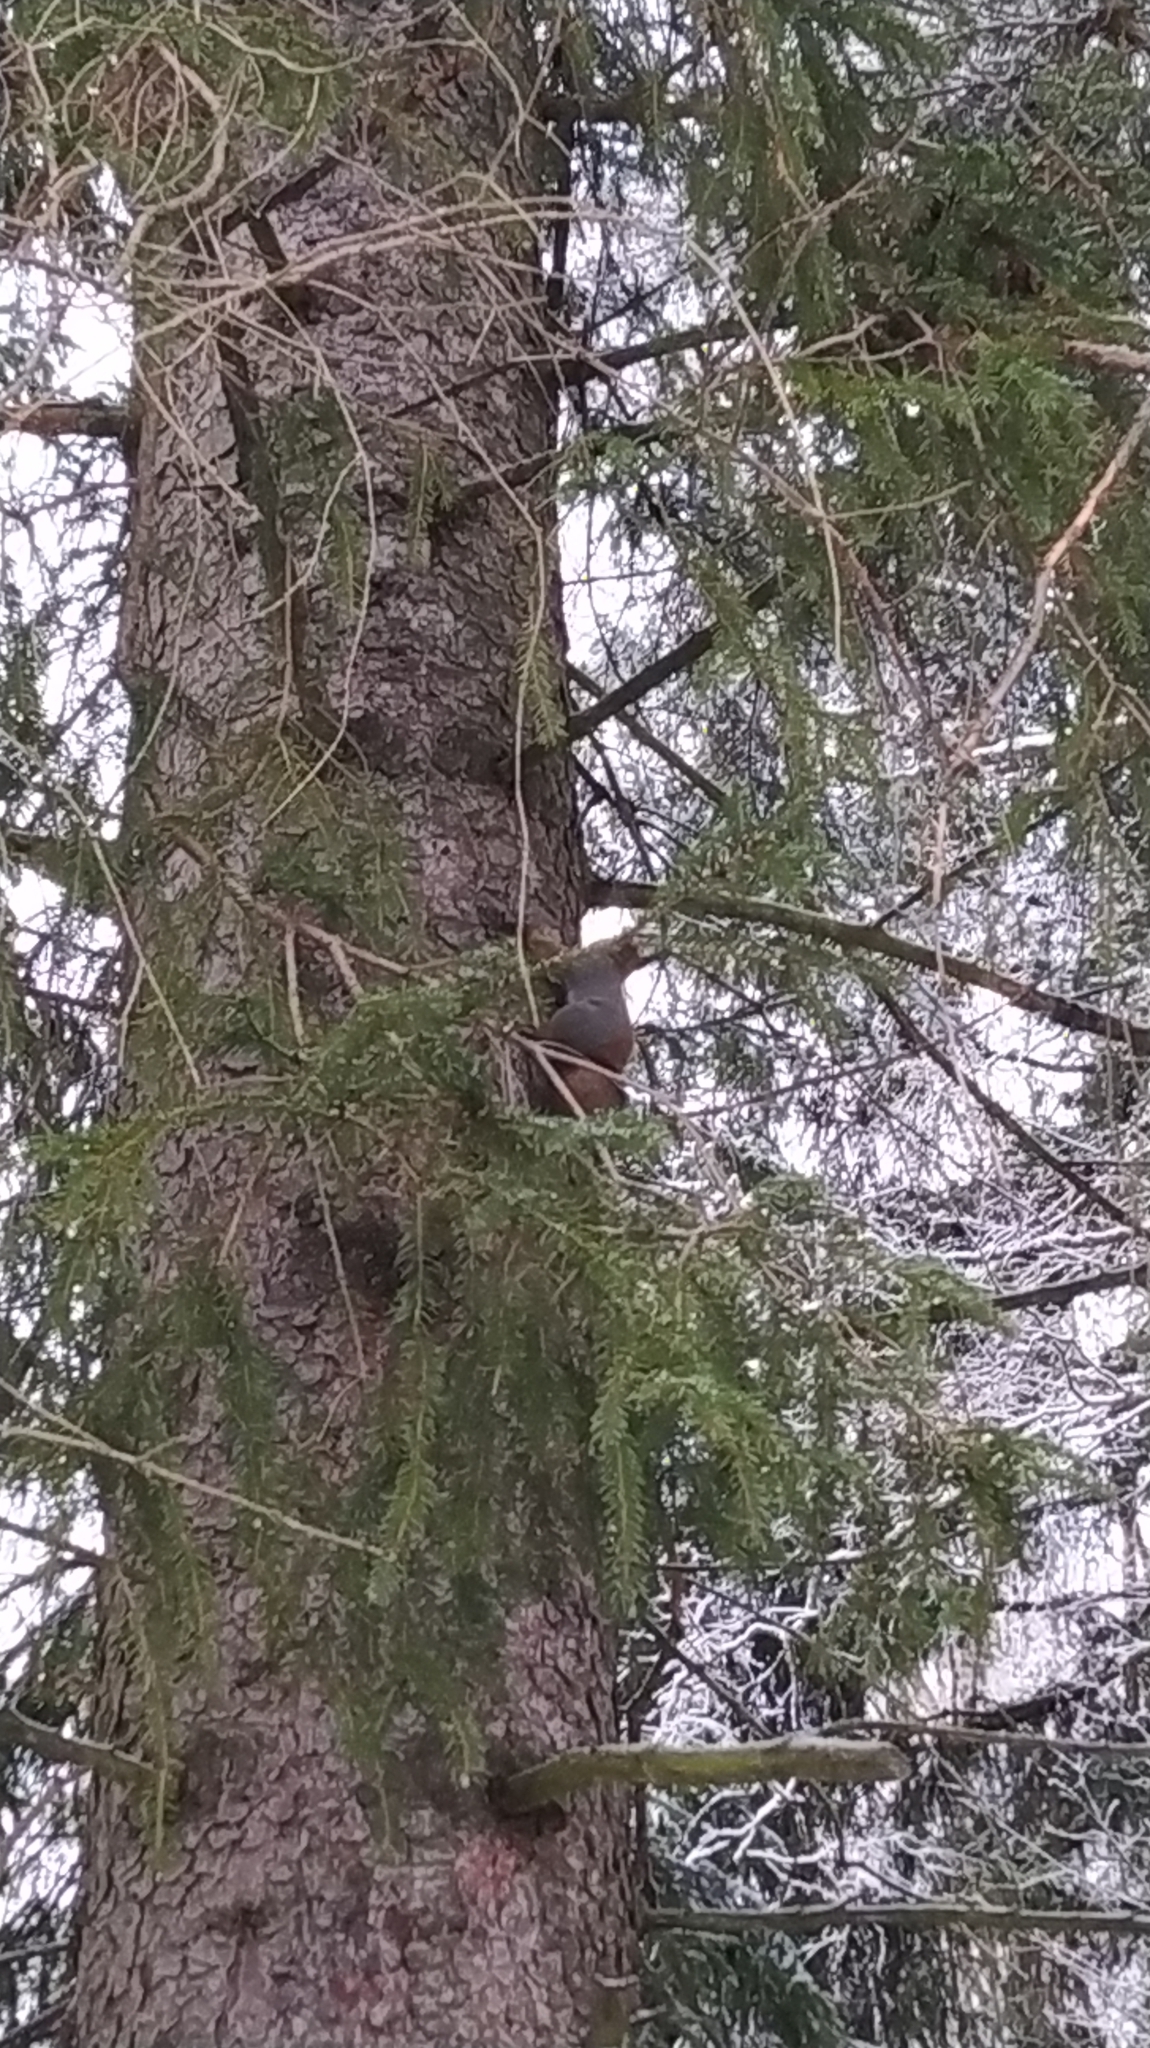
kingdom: Animalia
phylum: Chordata
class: Mammalia
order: Rodentia
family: Sciuridae
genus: Sciurus
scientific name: Sciurus vulgaris
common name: Eurasian red squirrel
